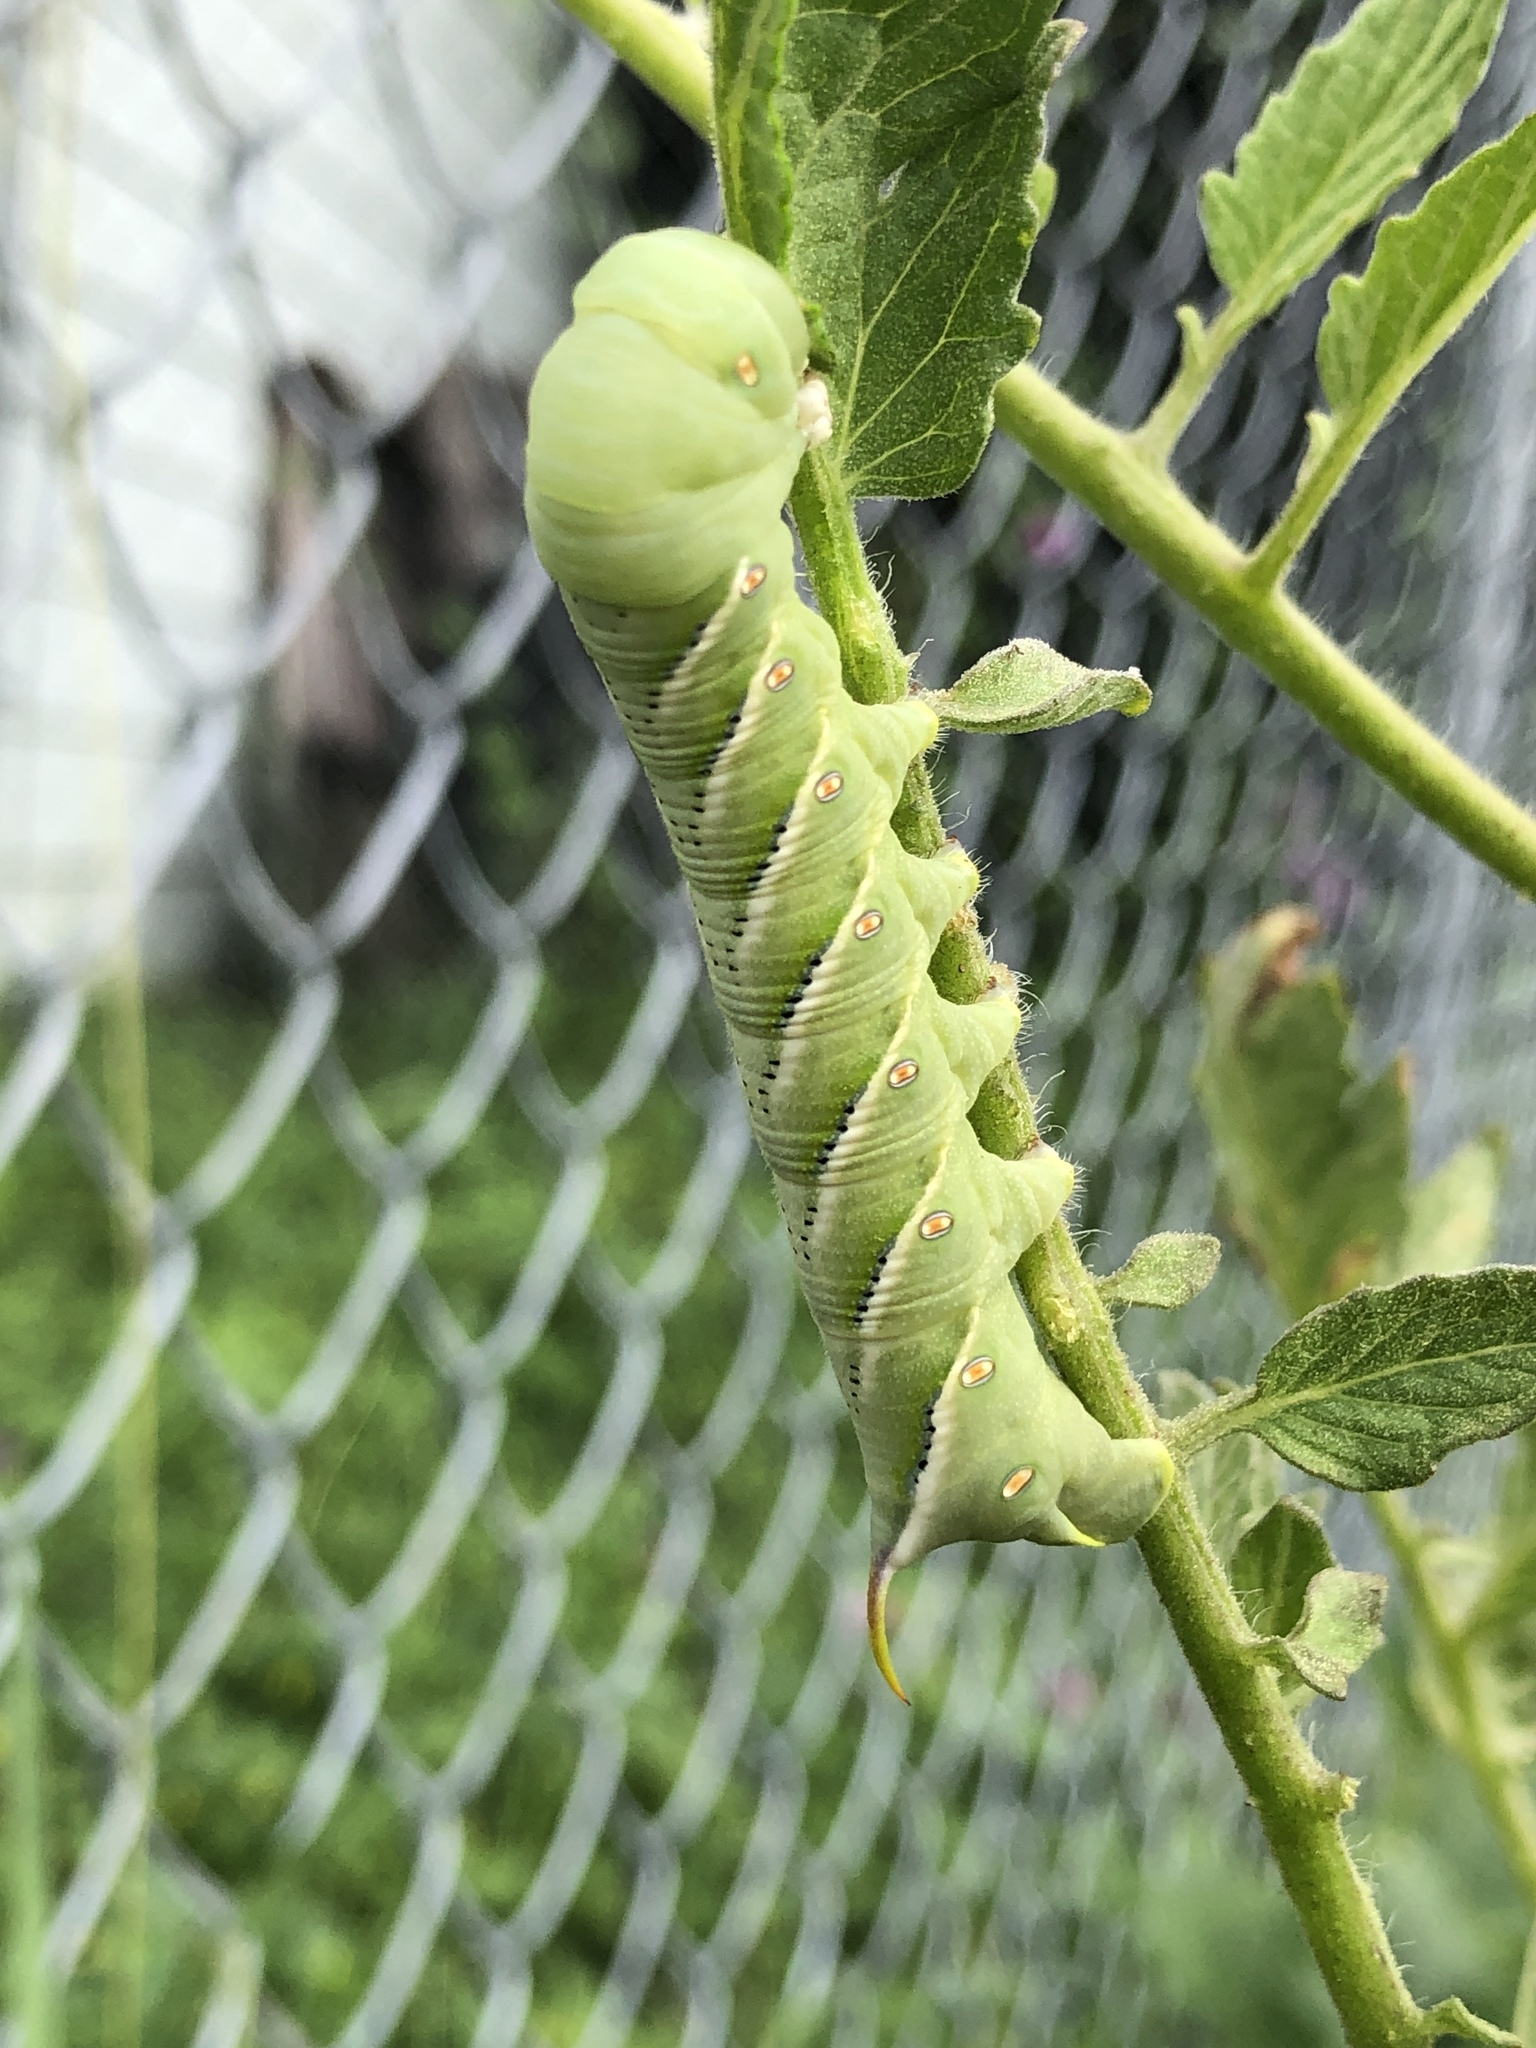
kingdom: Animalia
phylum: Arthropoda
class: Insecta
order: Lepidoptera
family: Sphingidae
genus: Manduca
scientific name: Manduca sexta
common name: Carolina sphinx
